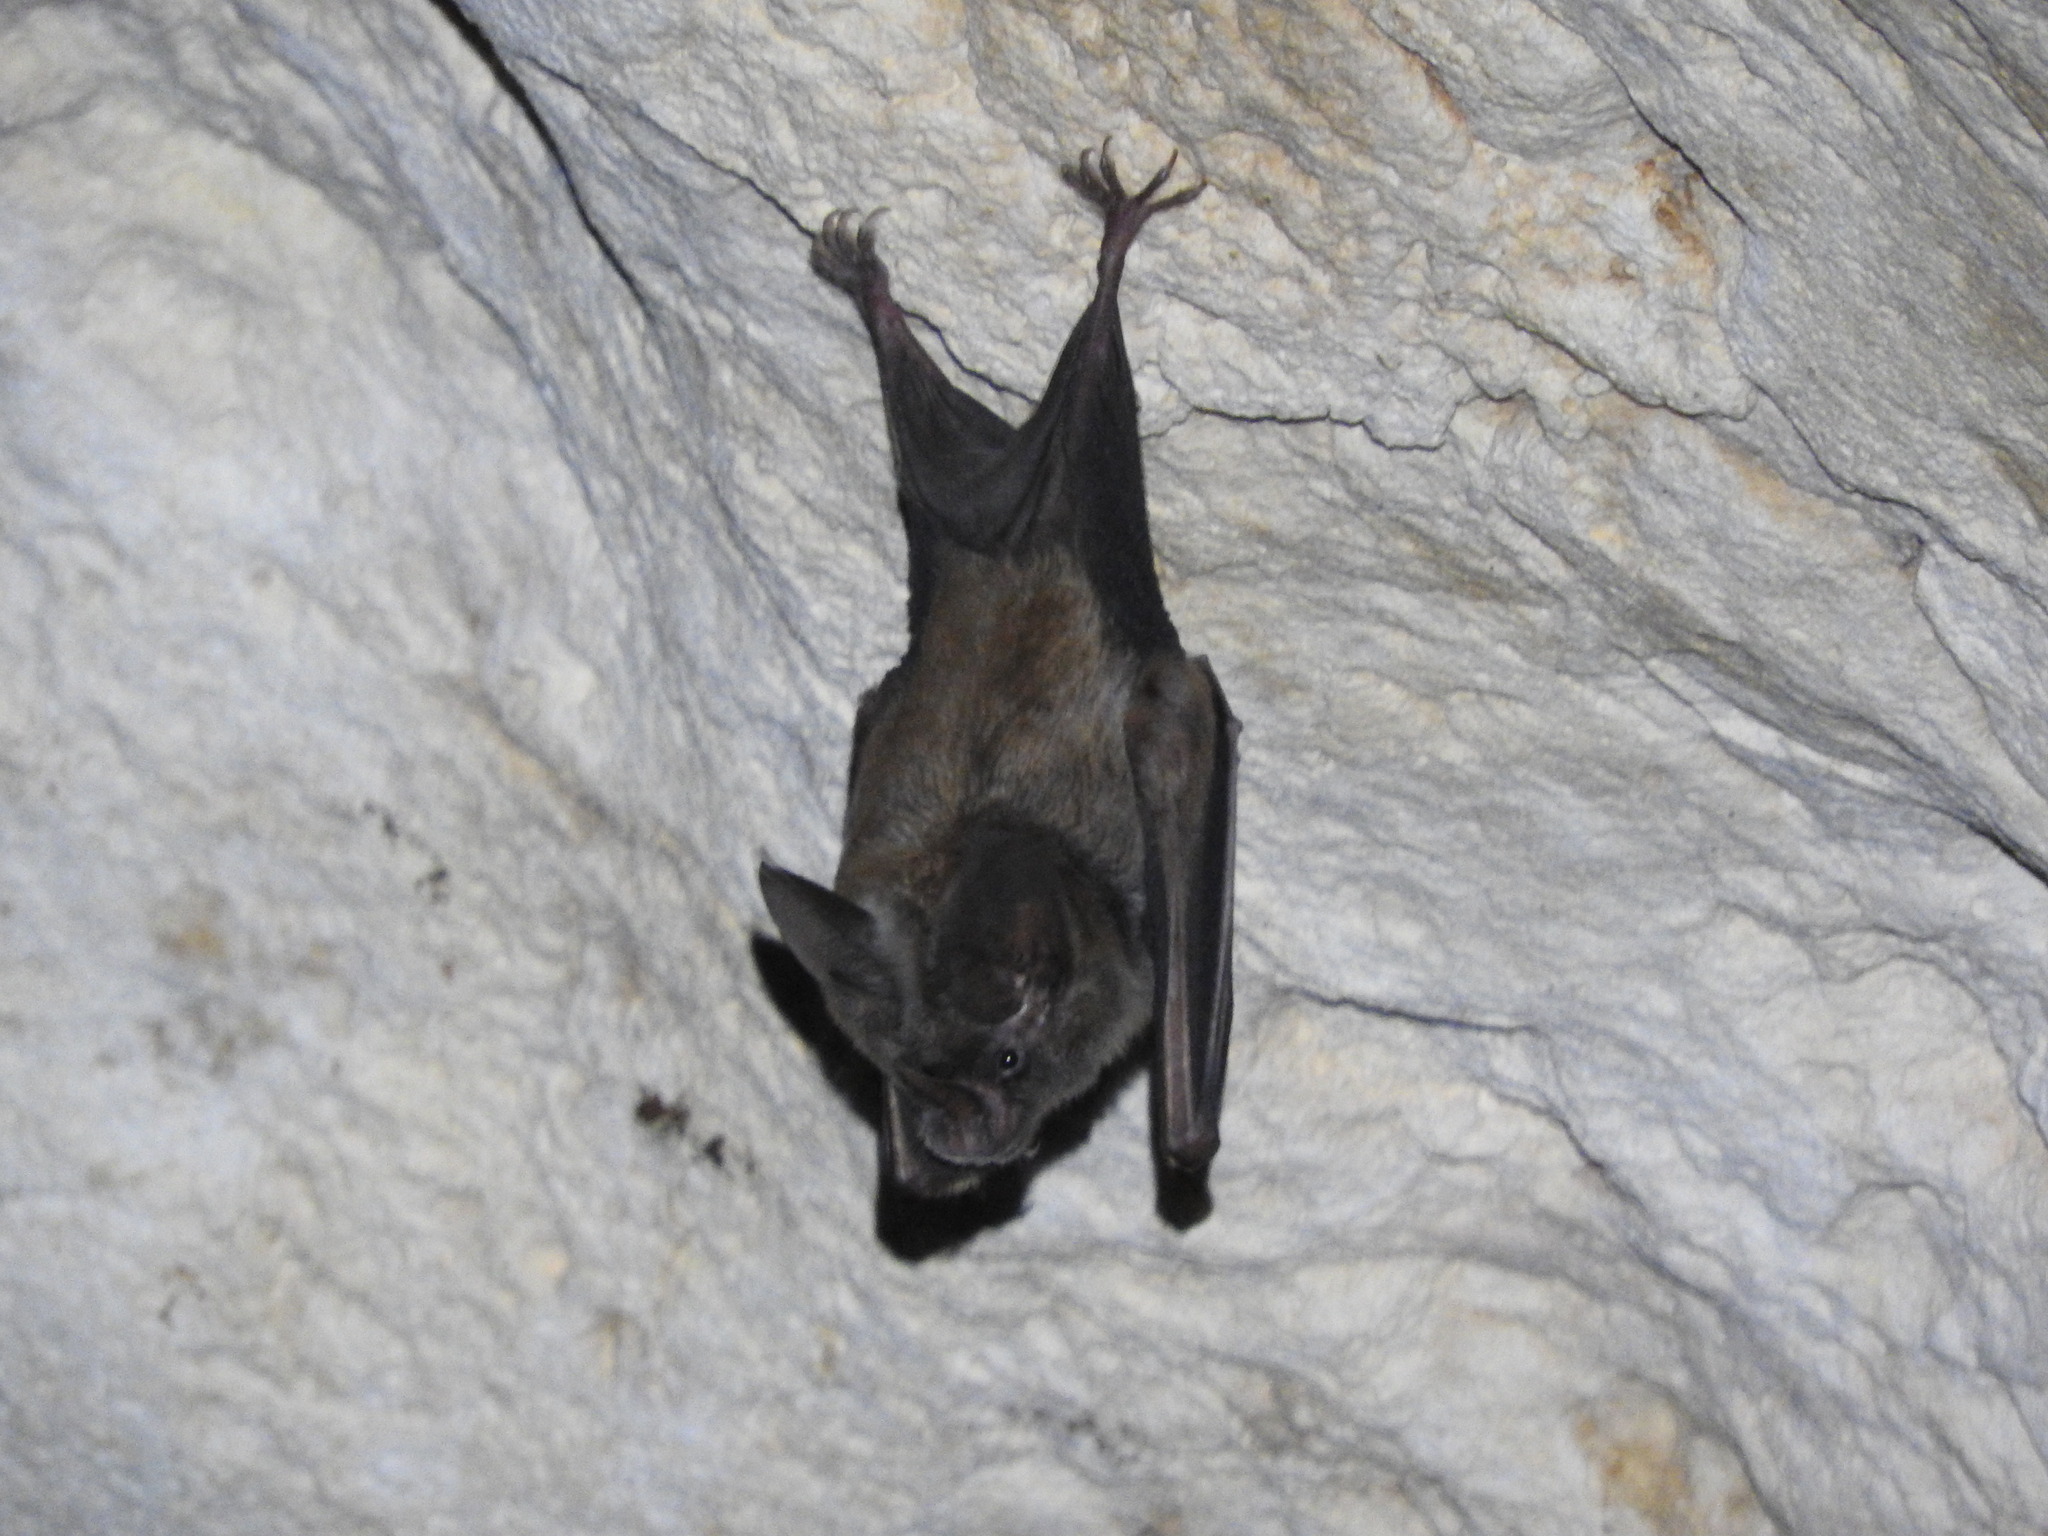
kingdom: Animalia
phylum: Chordata
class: Mammalia
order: Chiroptera
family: Phyllostomidae
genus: Mimon
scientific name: Mimon cozumelae
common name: Cozumelan golden bat
